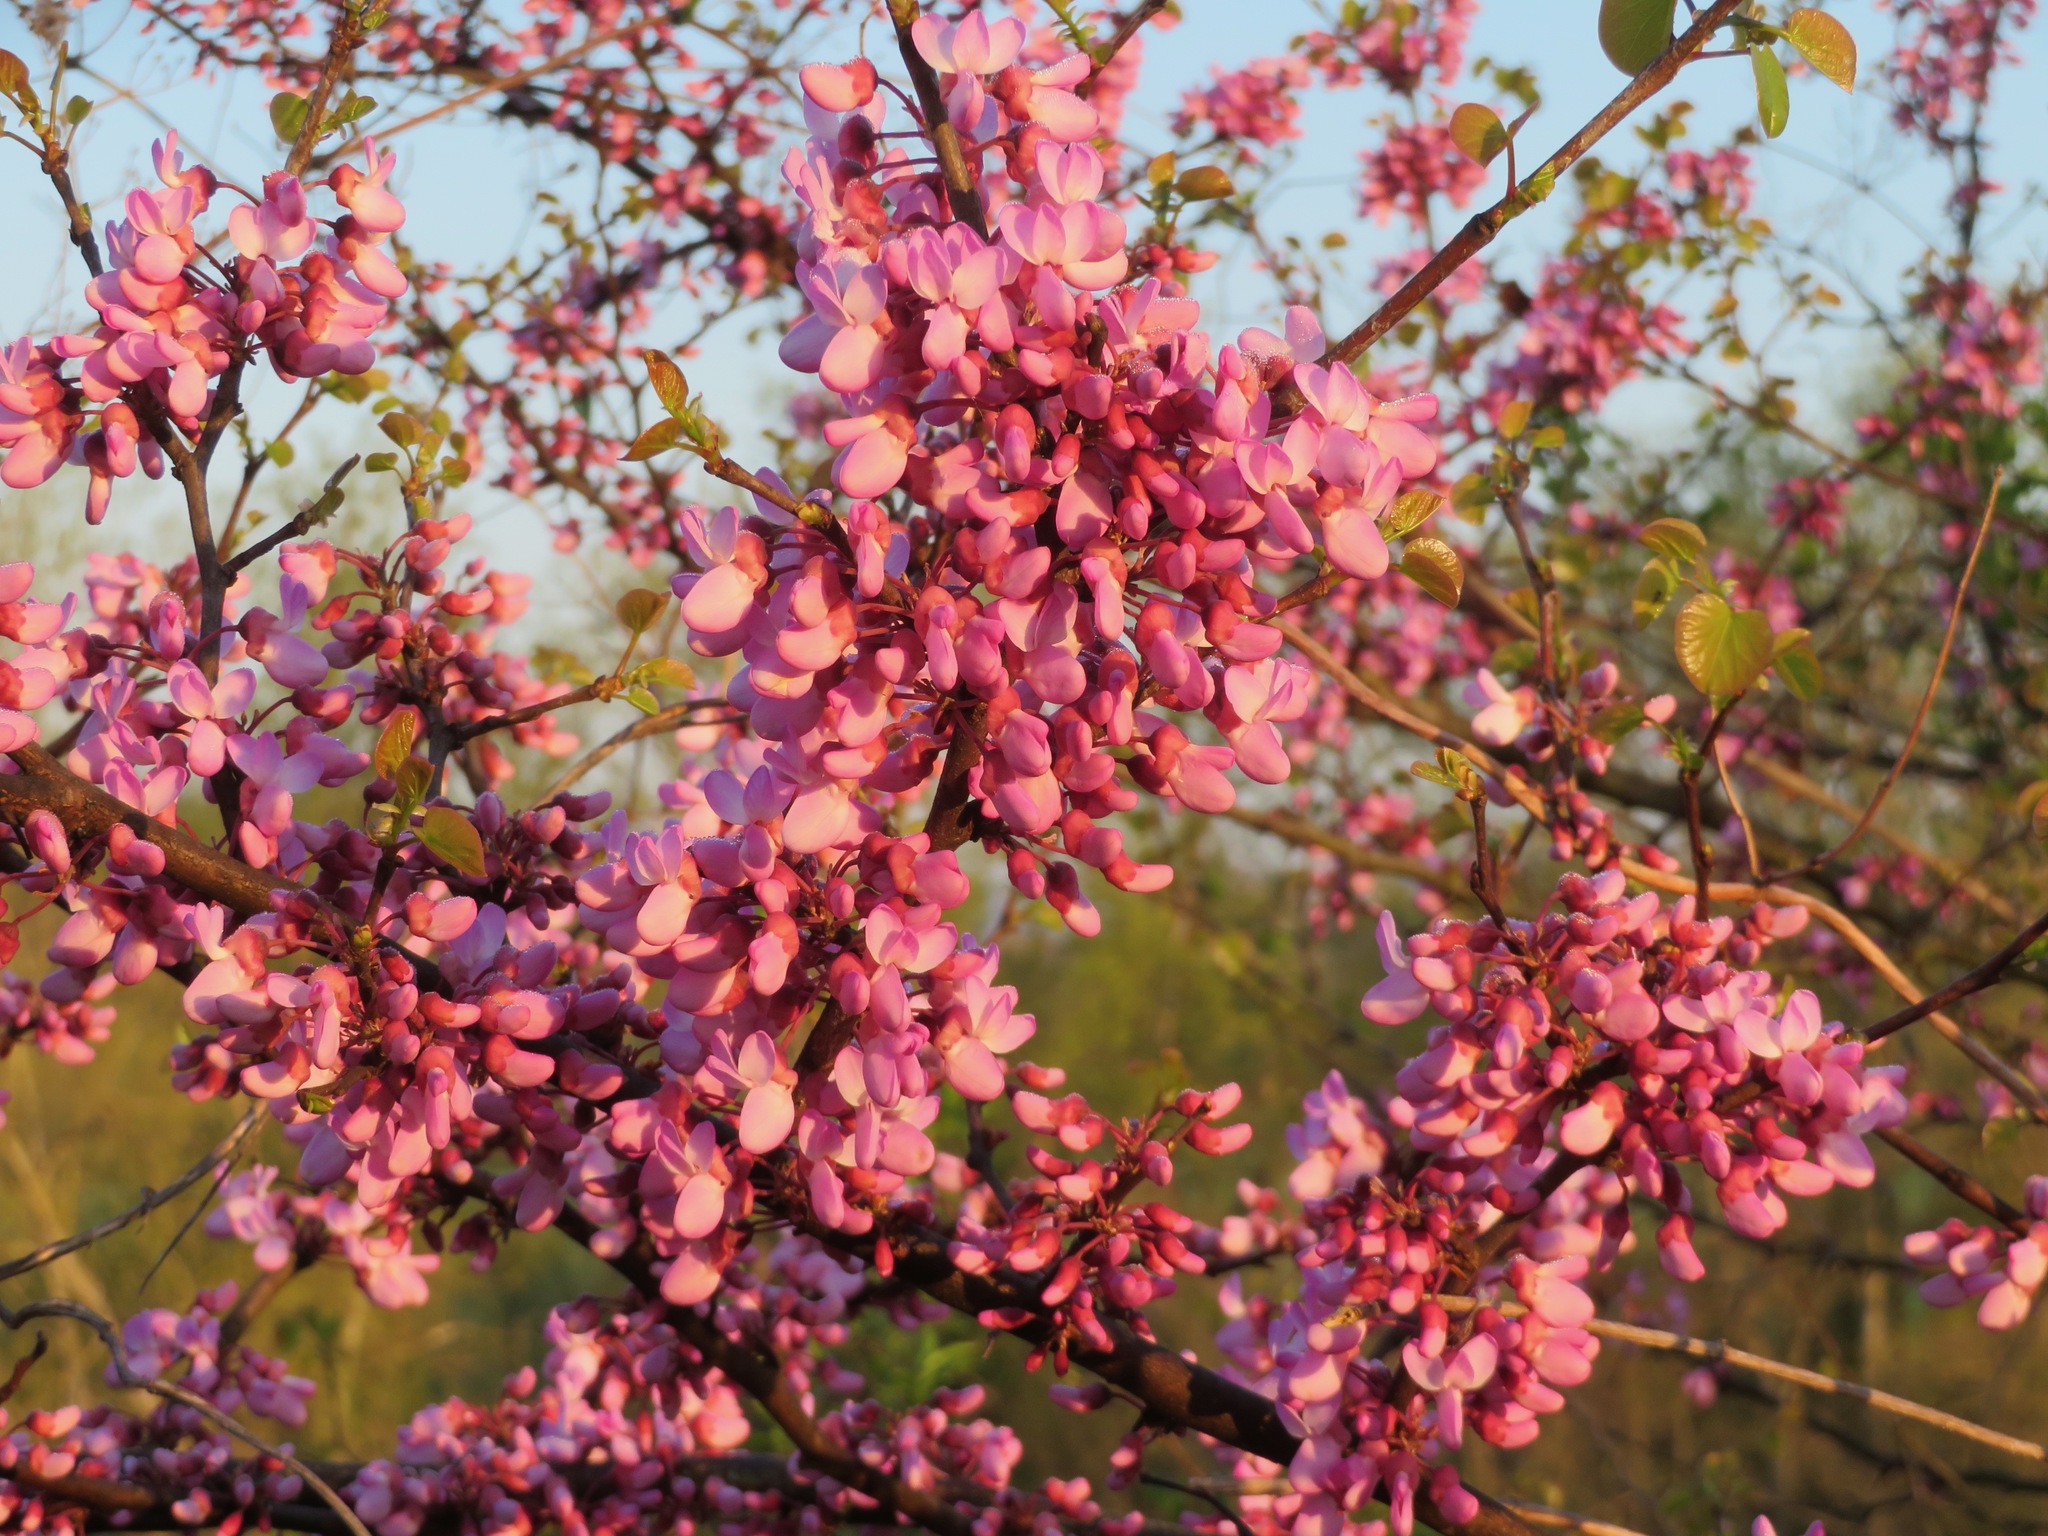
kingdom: Plantae
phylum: Tracheophyta
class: Magnoliopsida
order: Fabales
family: Fabaceae
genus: Cercis
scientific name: Cercis siliquastrum
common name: Judas tree
